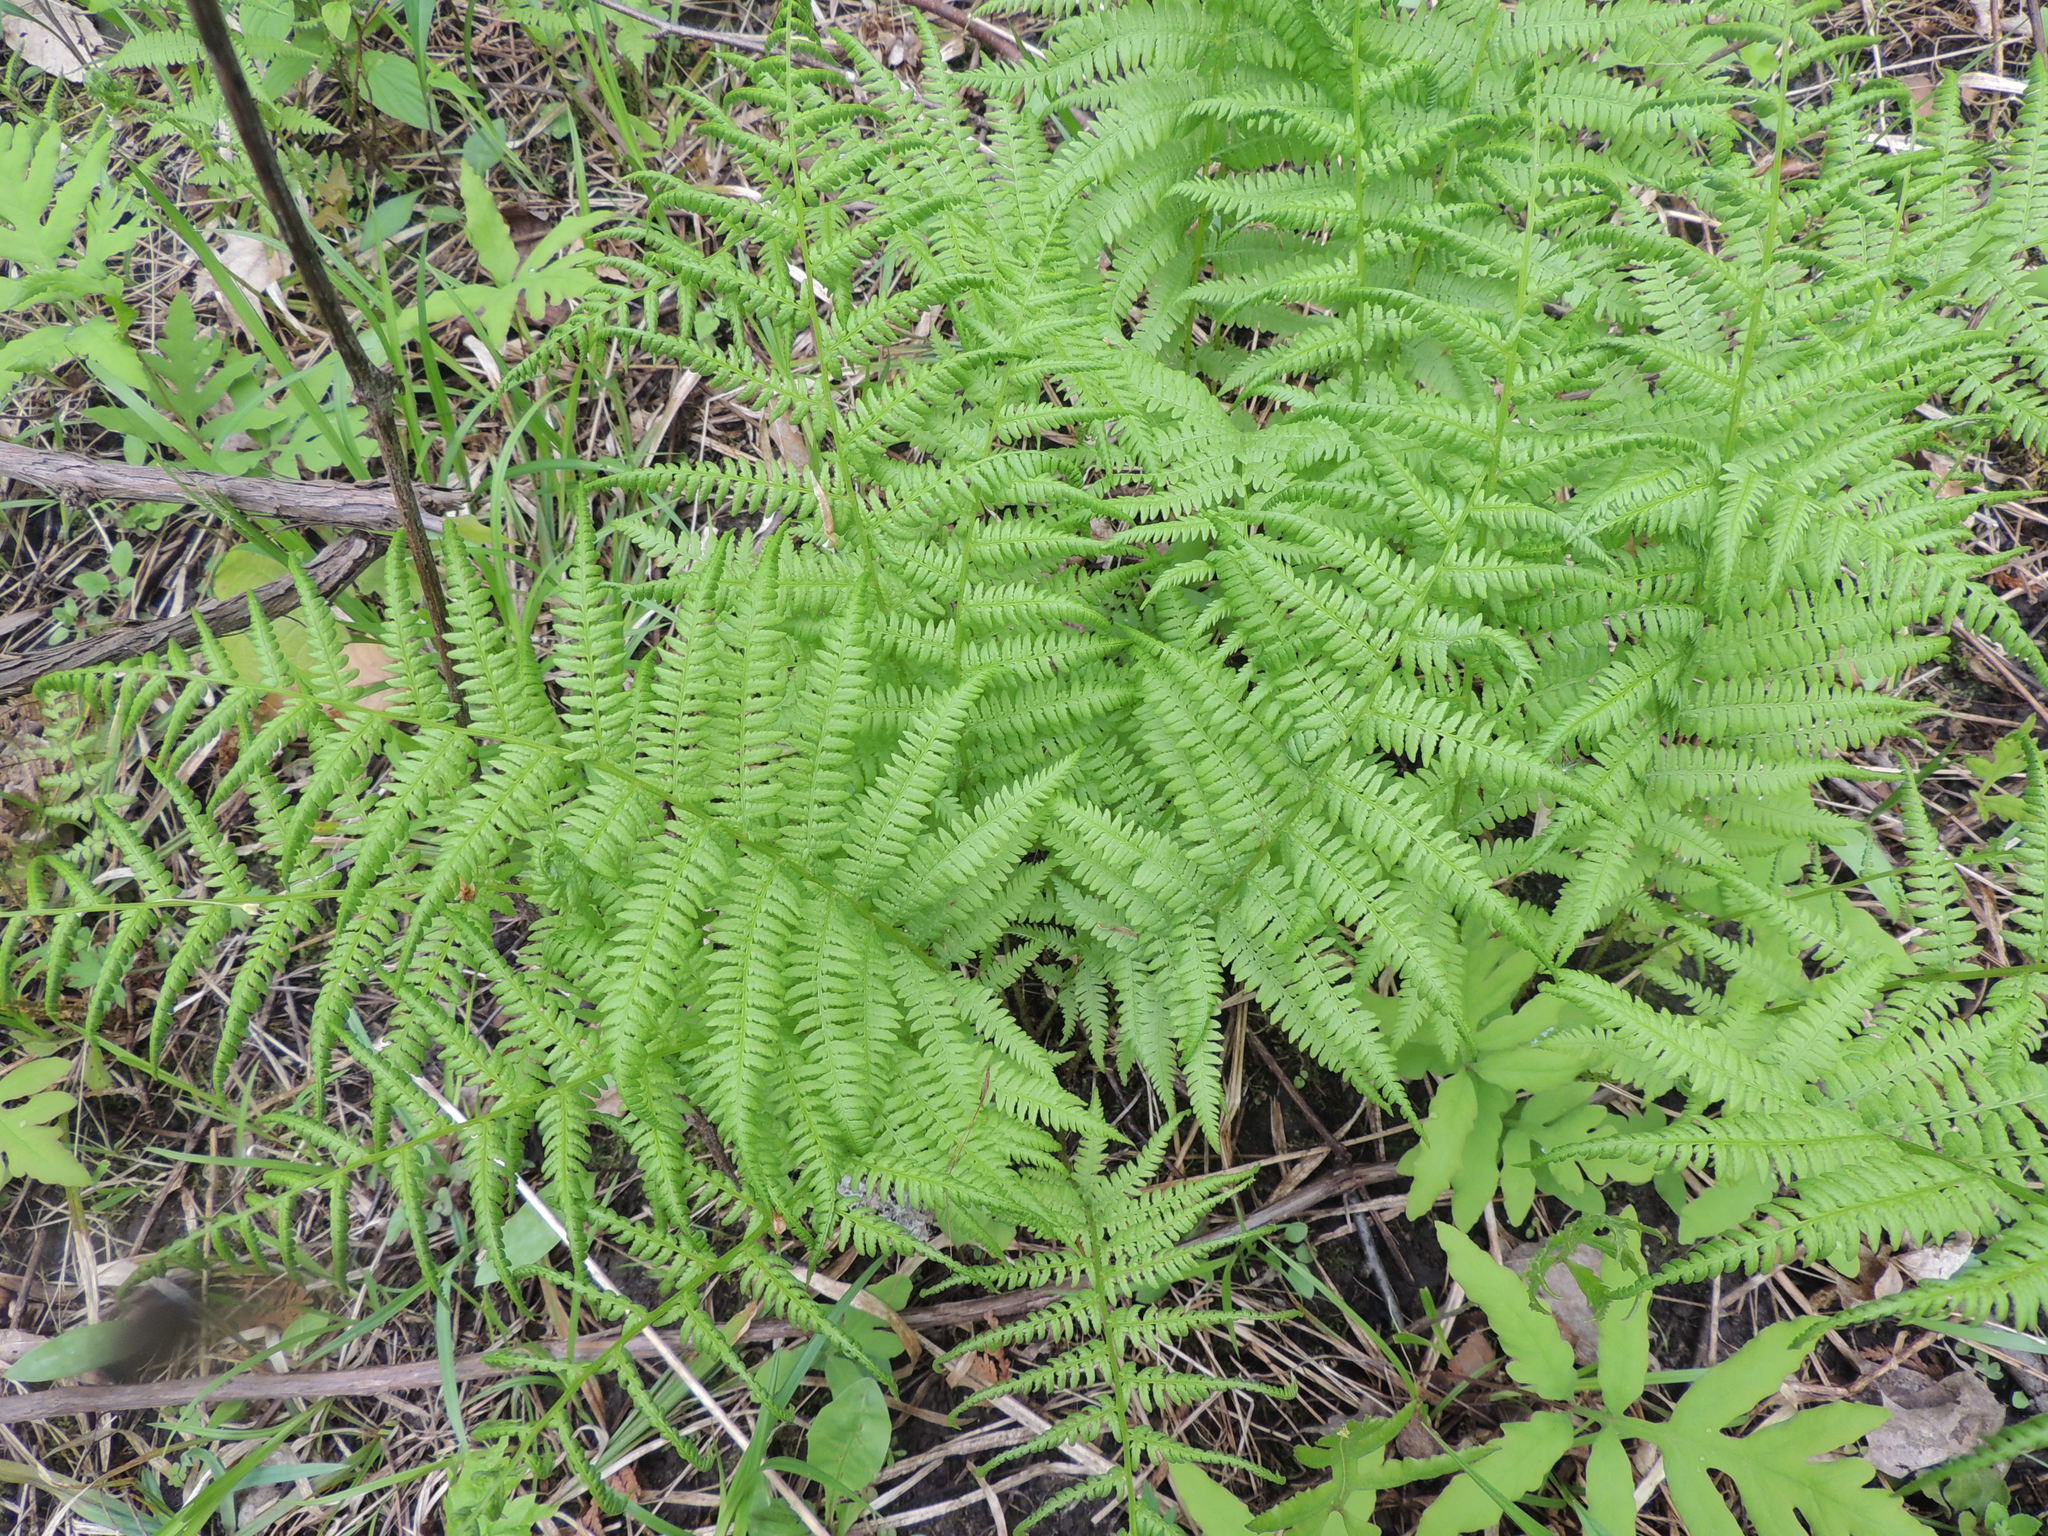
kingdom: Plantae
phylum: Tracheophyta
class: Polypodiopsida
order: Polypodiales
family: Athyriaceae
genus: Athyrium
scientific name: Athyrium angustum
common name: Northern lady fern
